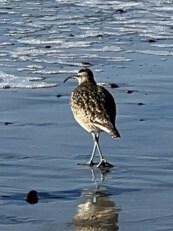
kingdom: Animalia
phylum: Chordata
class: Aves
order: Charadriiformes
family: Scolopacidae
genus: Numenius
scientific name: Numenius phaeopus
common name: Whimbrel
